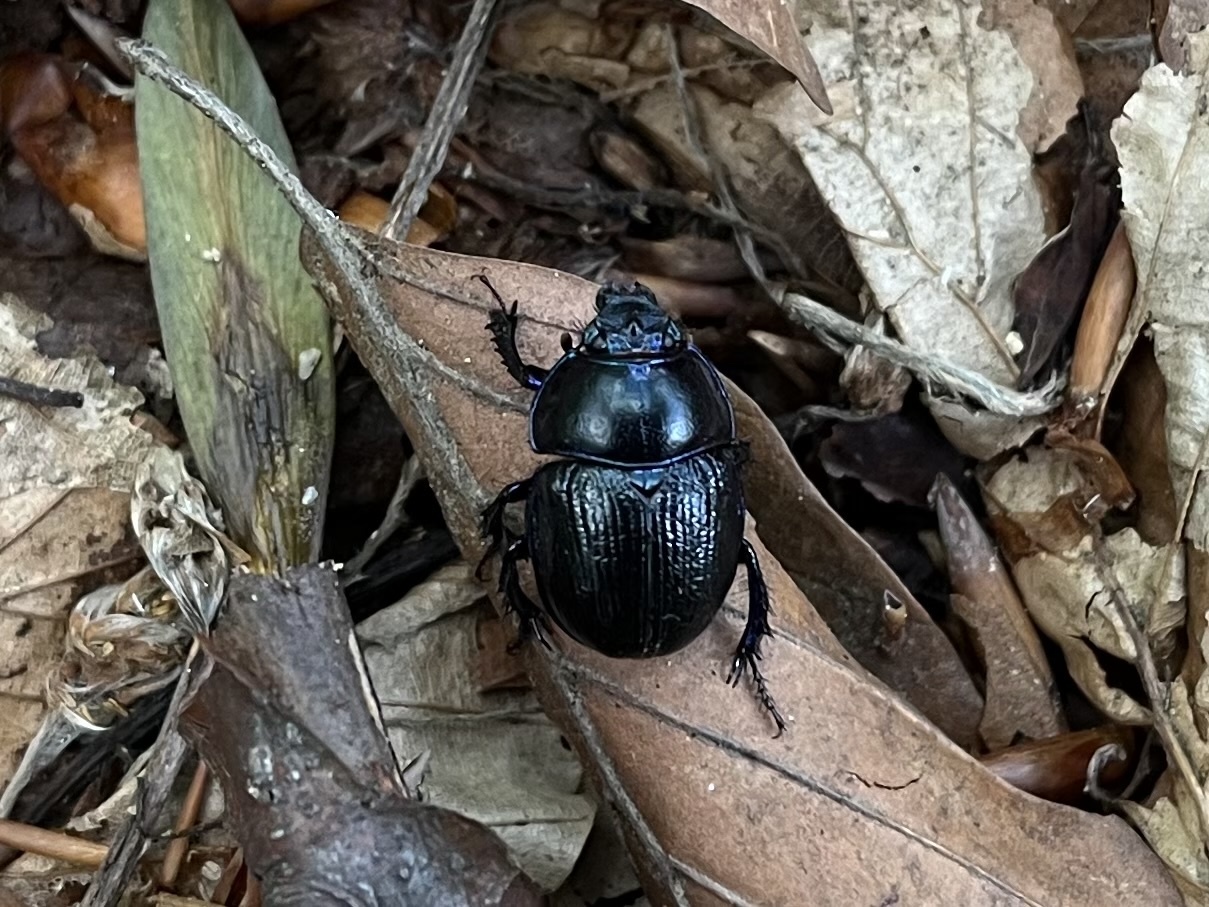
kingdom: Animalia
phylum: Arthropoda
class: Insecta
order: Coleoptera
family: Geotrupidae
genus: Anoplotrupes
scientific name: Anoplotrupes stercorosus
